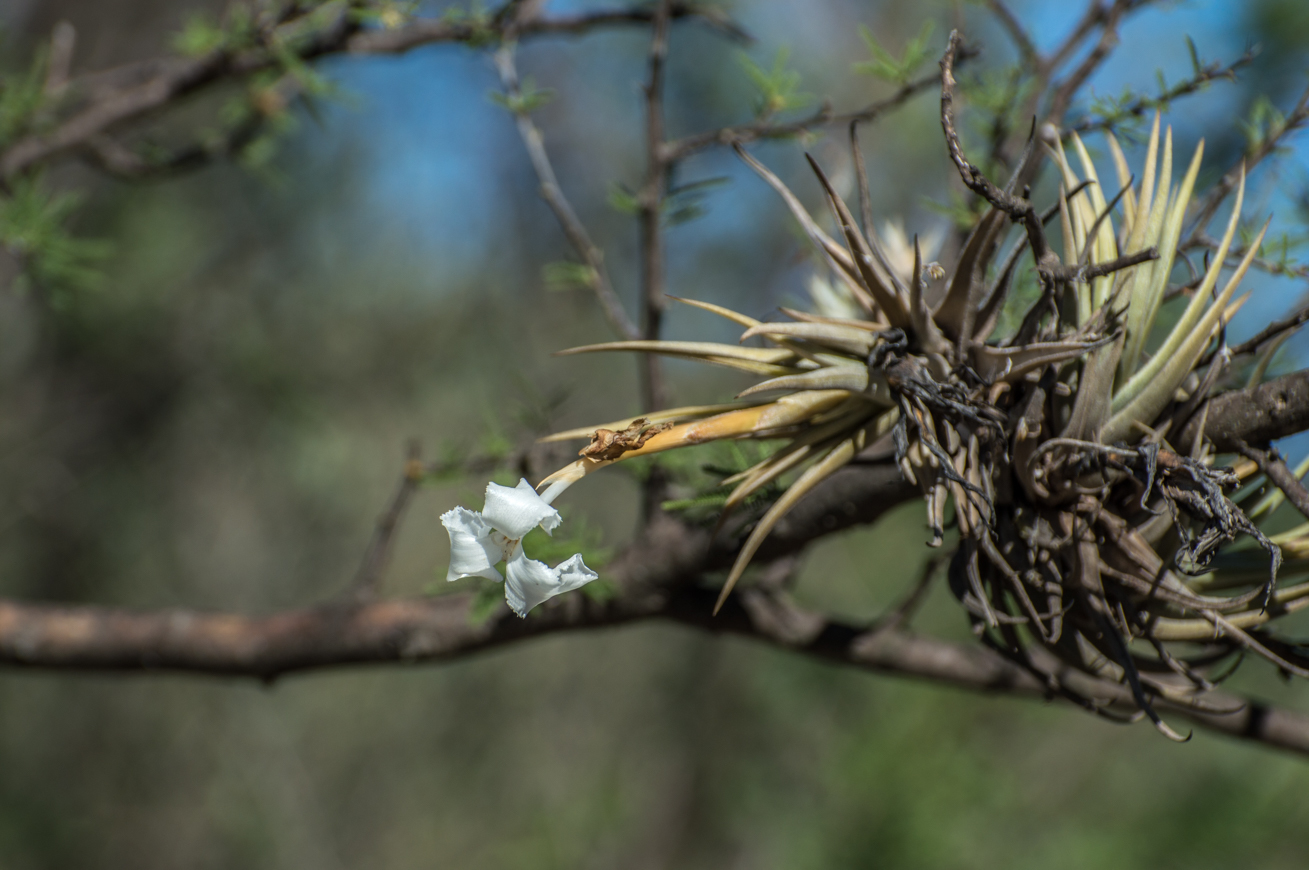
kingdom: Plantae
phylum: Tracheophyta
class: Liliopsida
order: Poales
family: Bromeliaceae
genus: Tillandsia
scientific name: Tillandsia xiphioides
